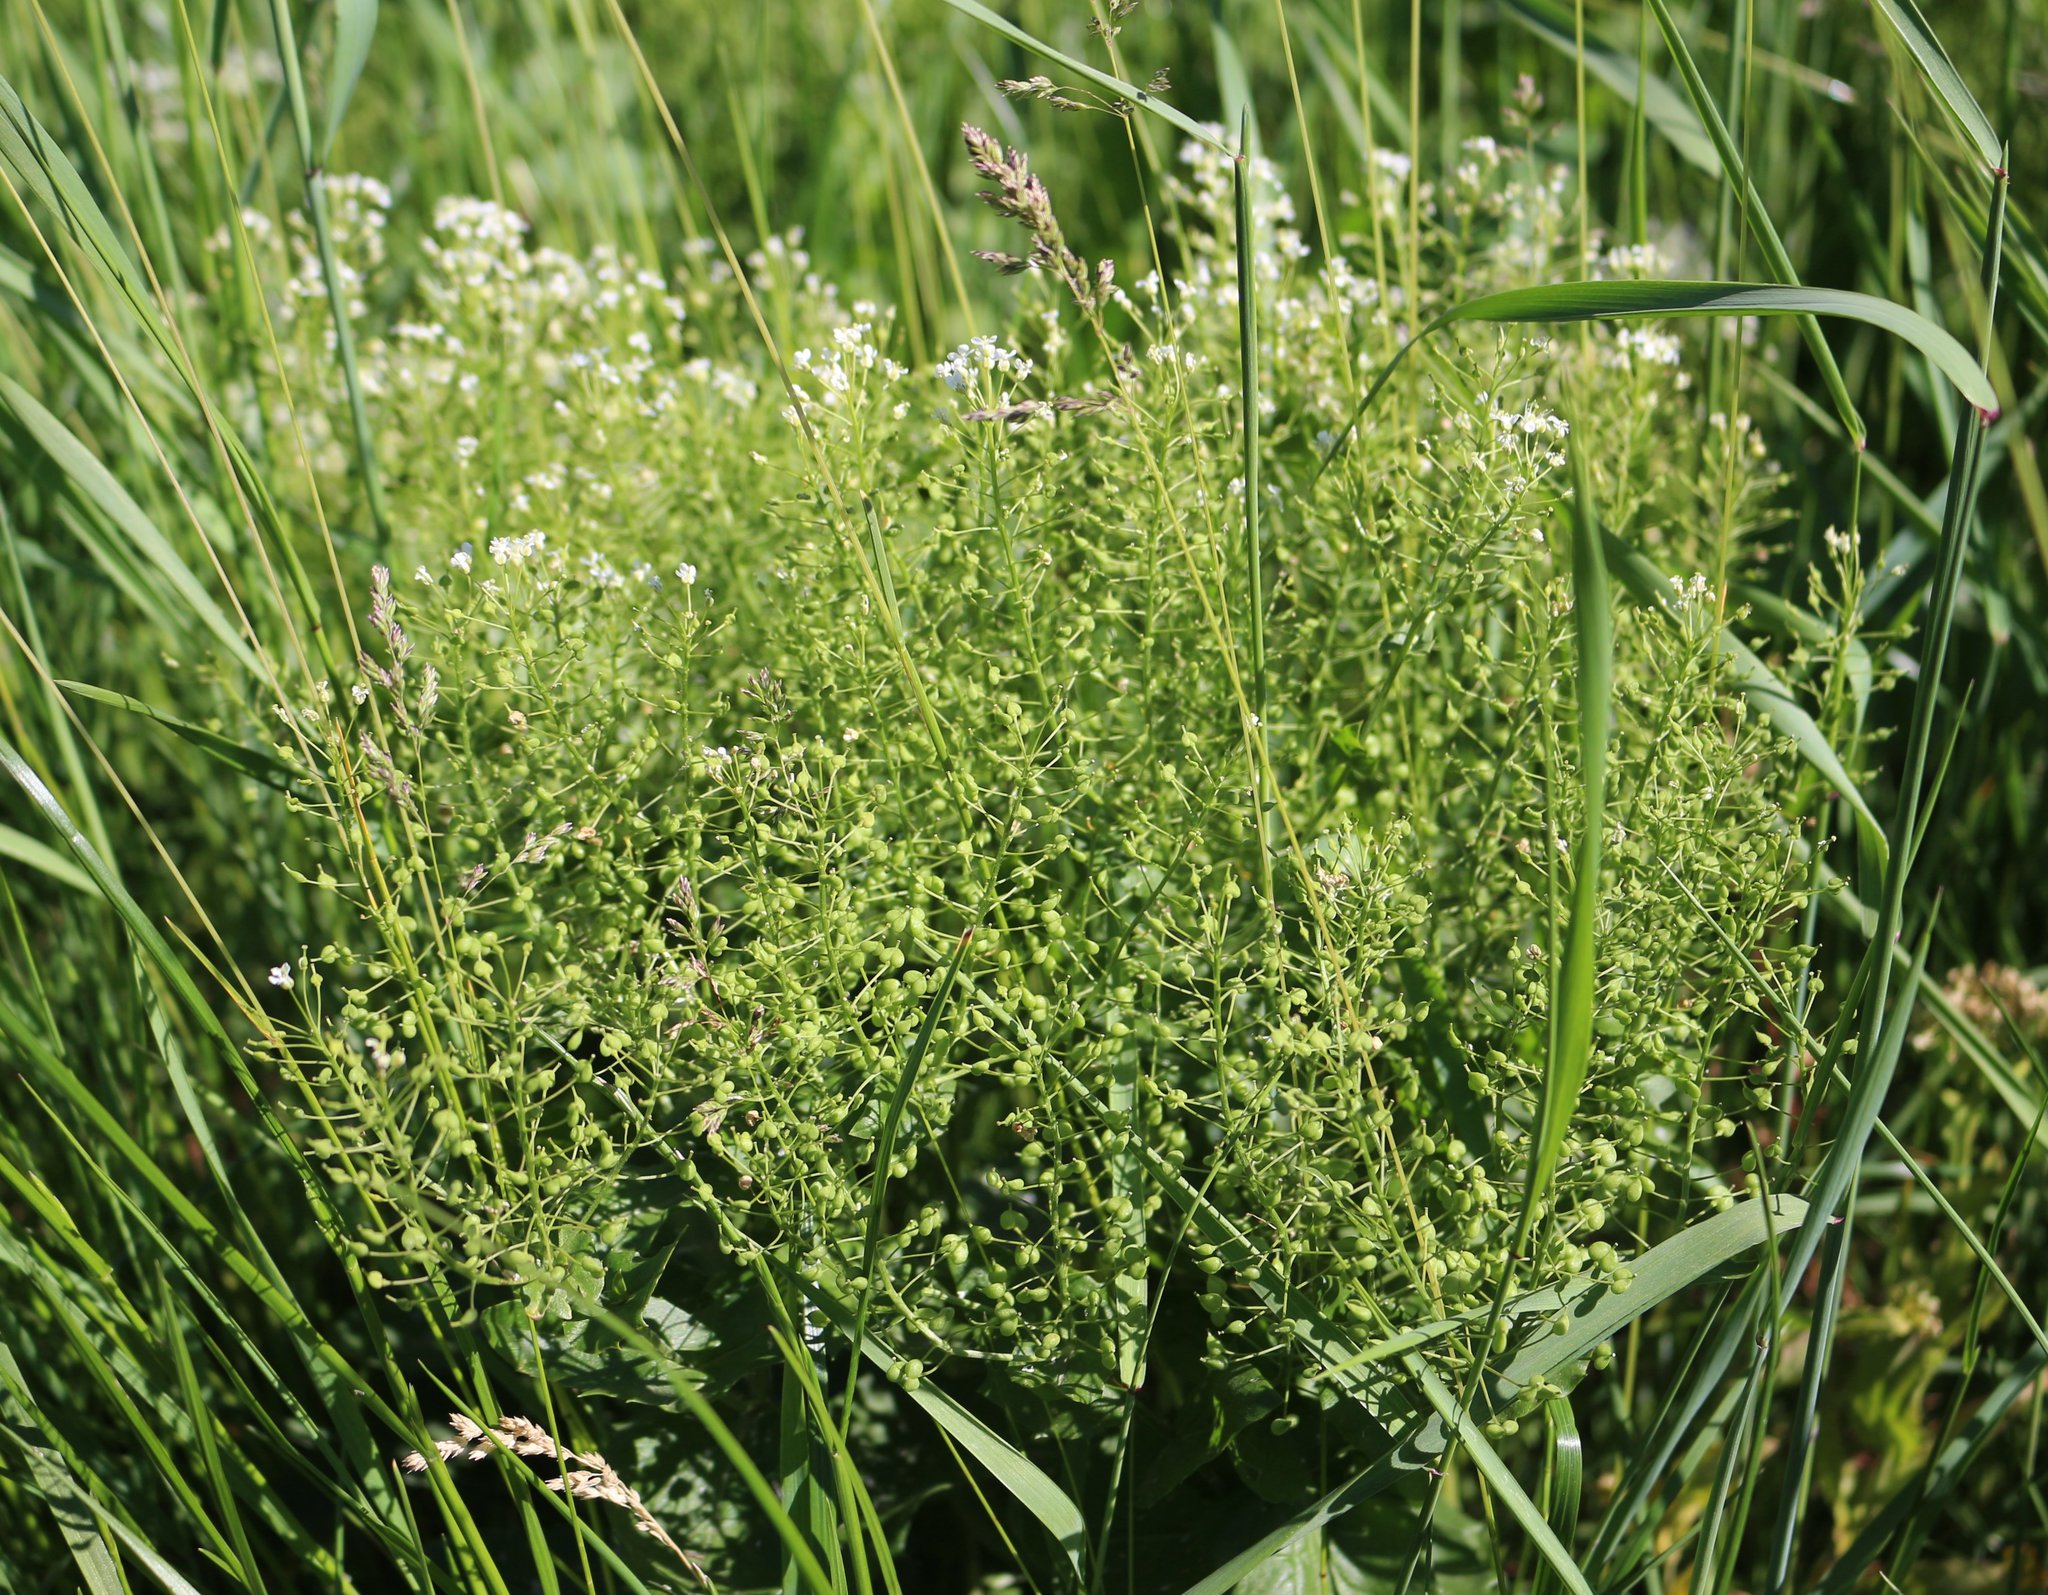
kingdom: Plantae
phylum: Tracheophyta
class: Magnoliopsida
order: Brassicales
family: Brassicaceae
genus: Lepidium
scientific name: Lepidium draba
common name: Hoary cress
